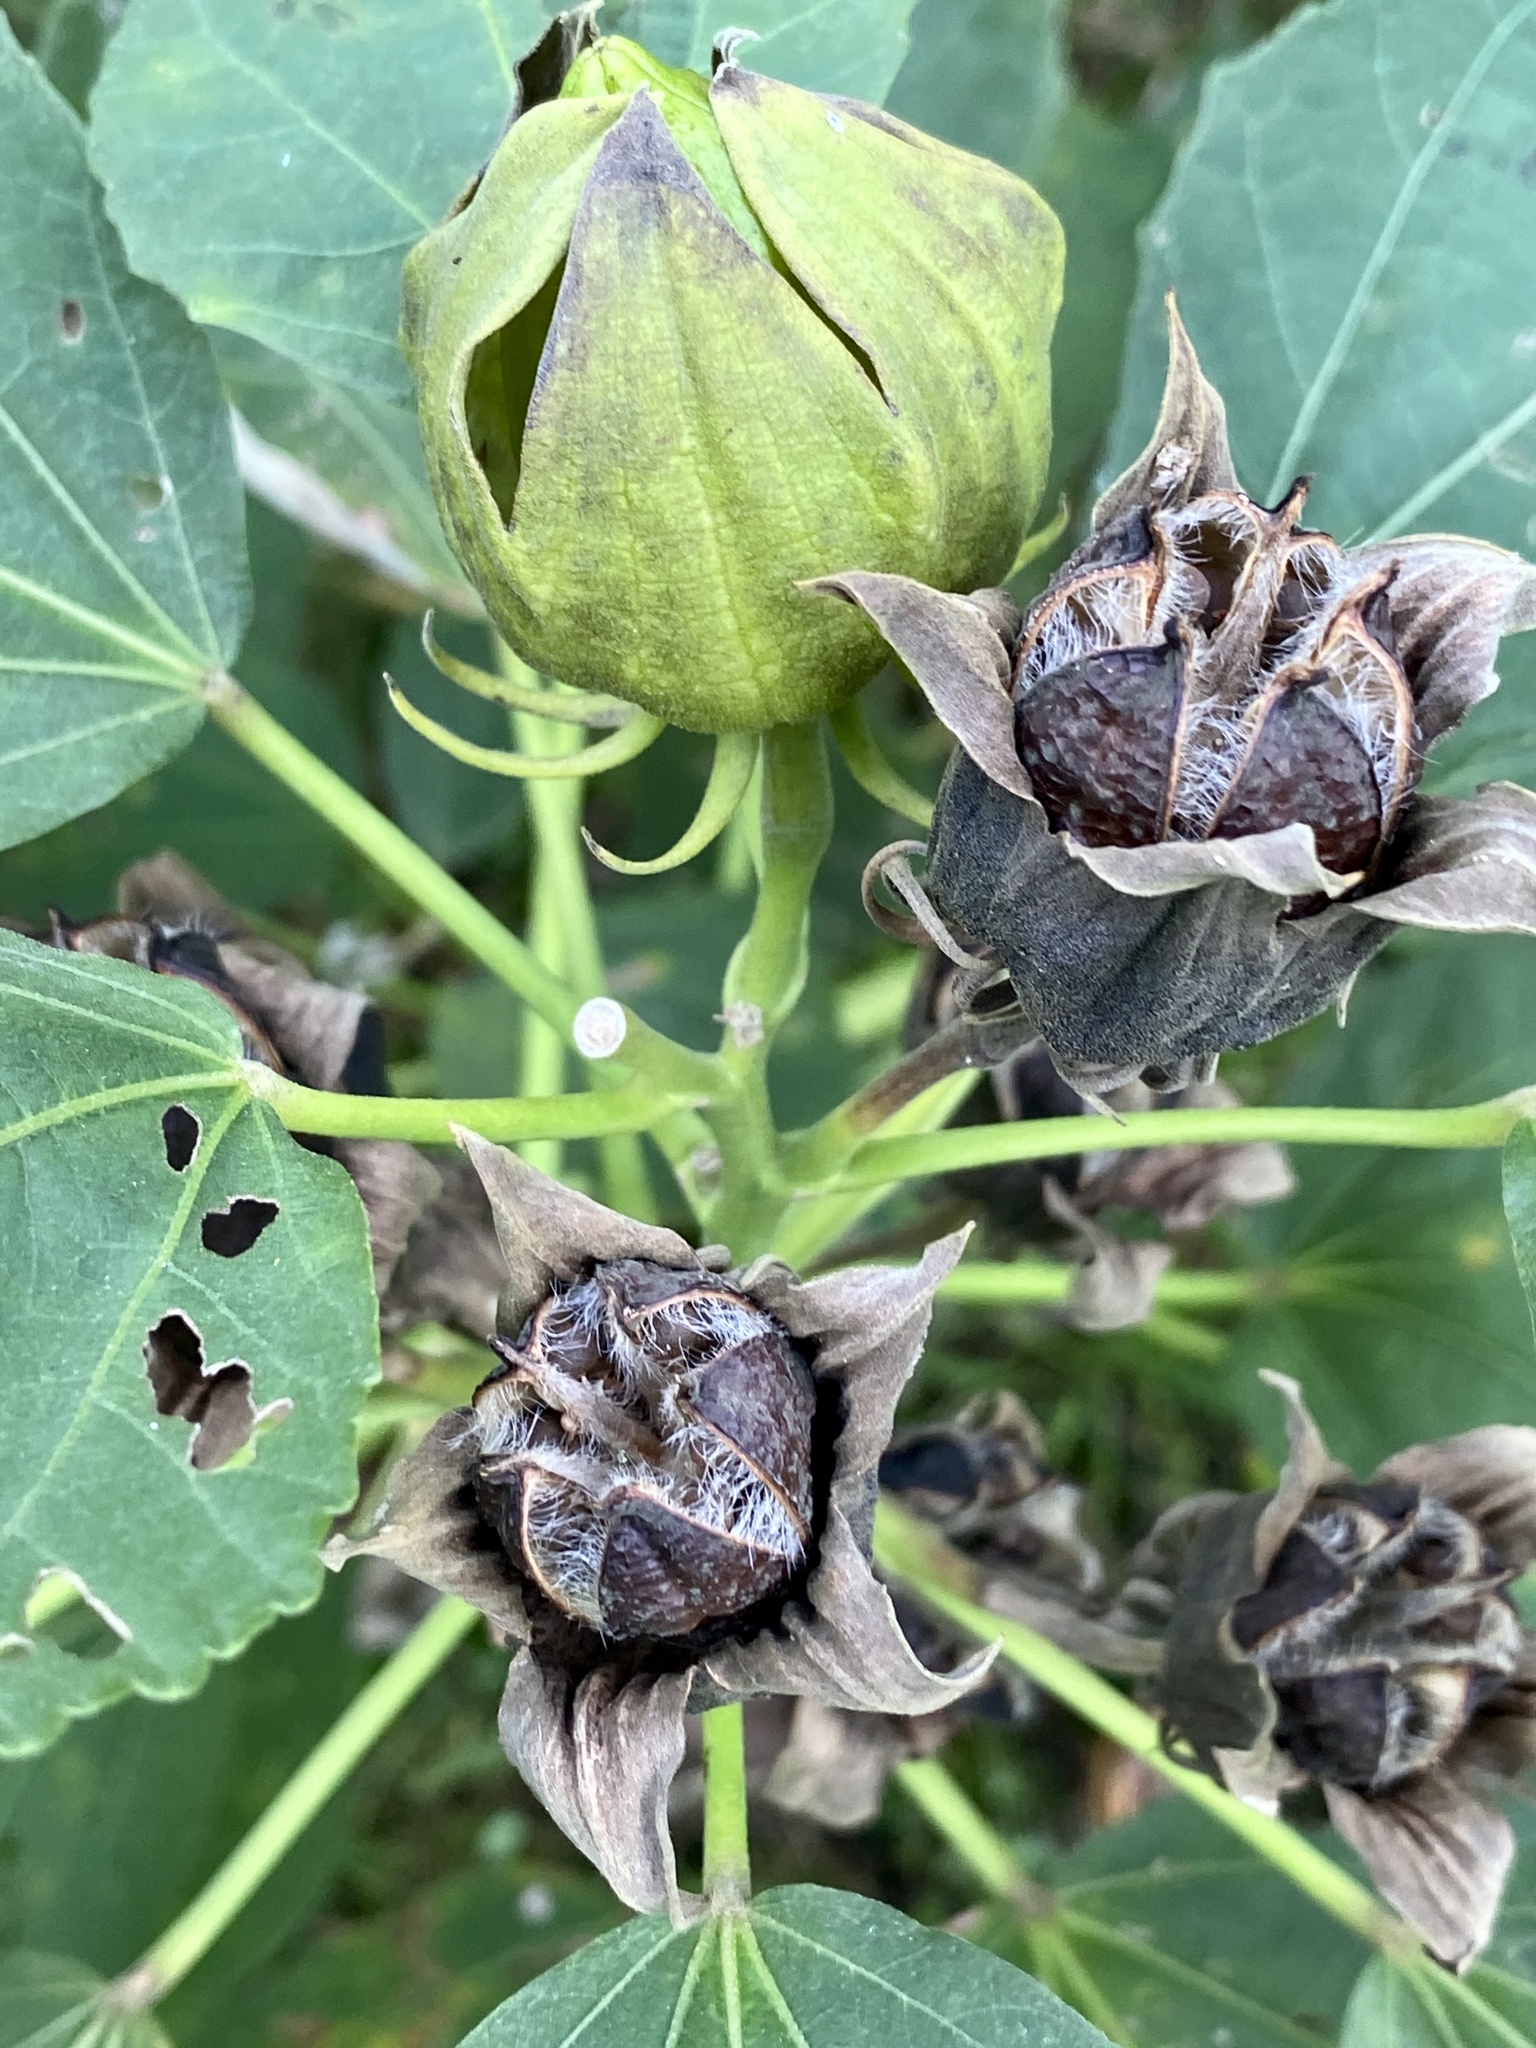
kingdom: Plantae
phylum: Tracheophyta
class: Magnoliopsida
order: Malvales
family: Malvaceae
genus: Hibiscus
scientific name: Hibiscus moscheutos
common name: Common rose-mallow
